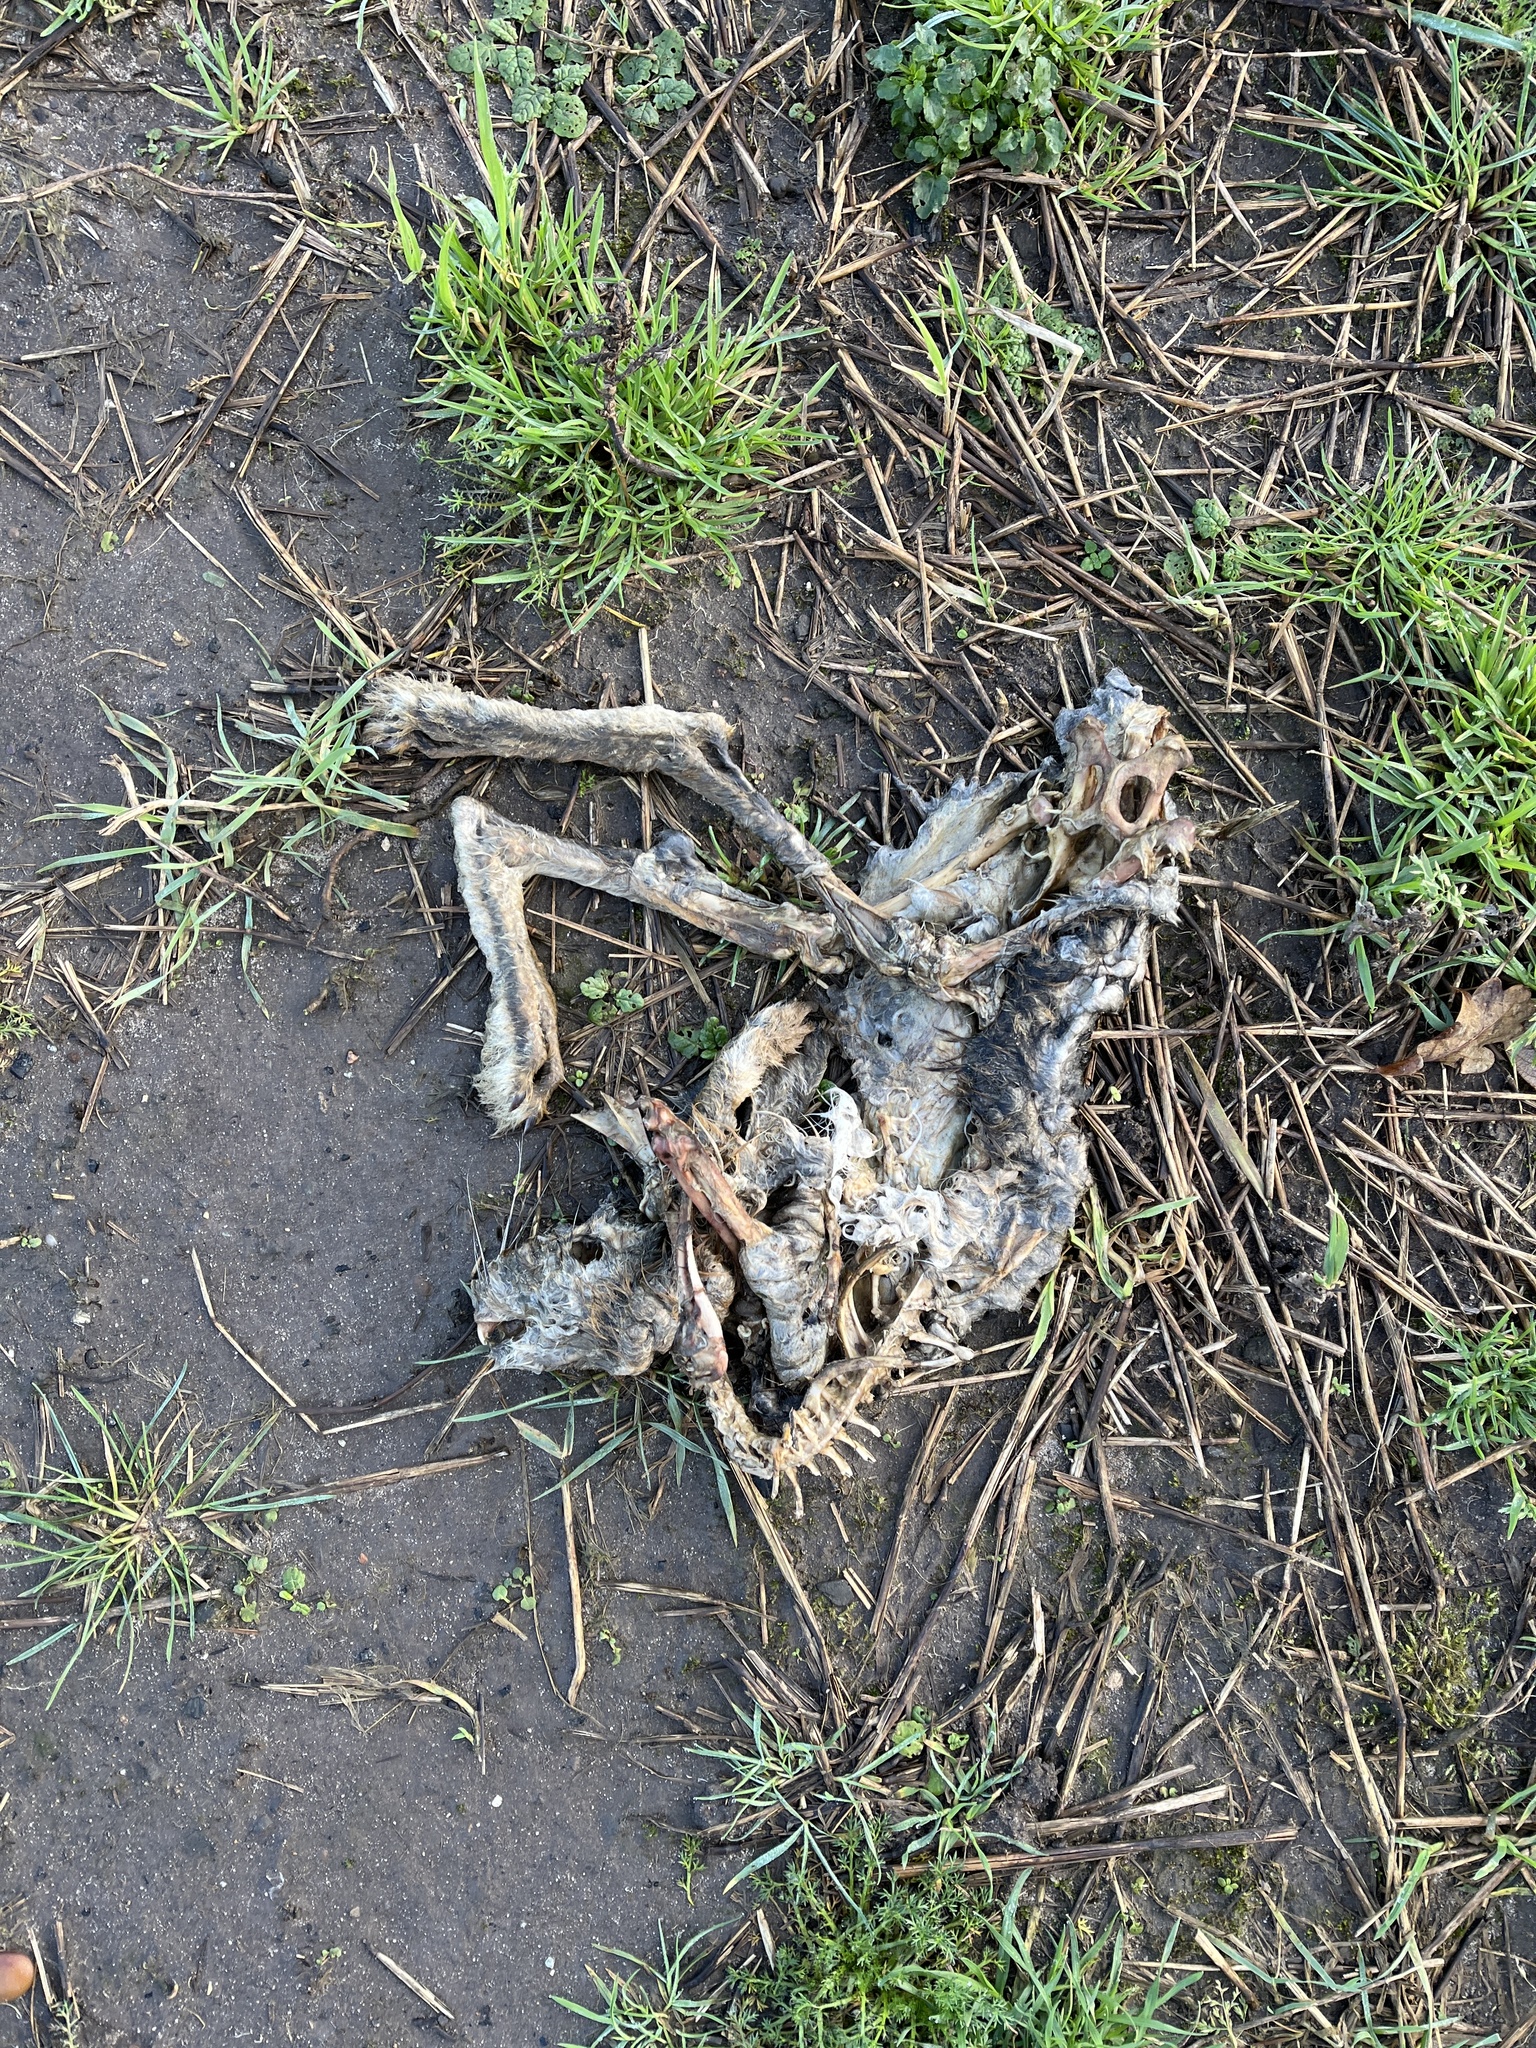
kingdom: Animalia
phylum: Chordata
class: Mammalia
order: Lagomorpha
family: Leporidae
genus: Lepus
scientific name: Lepus europaeus
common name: European hare
